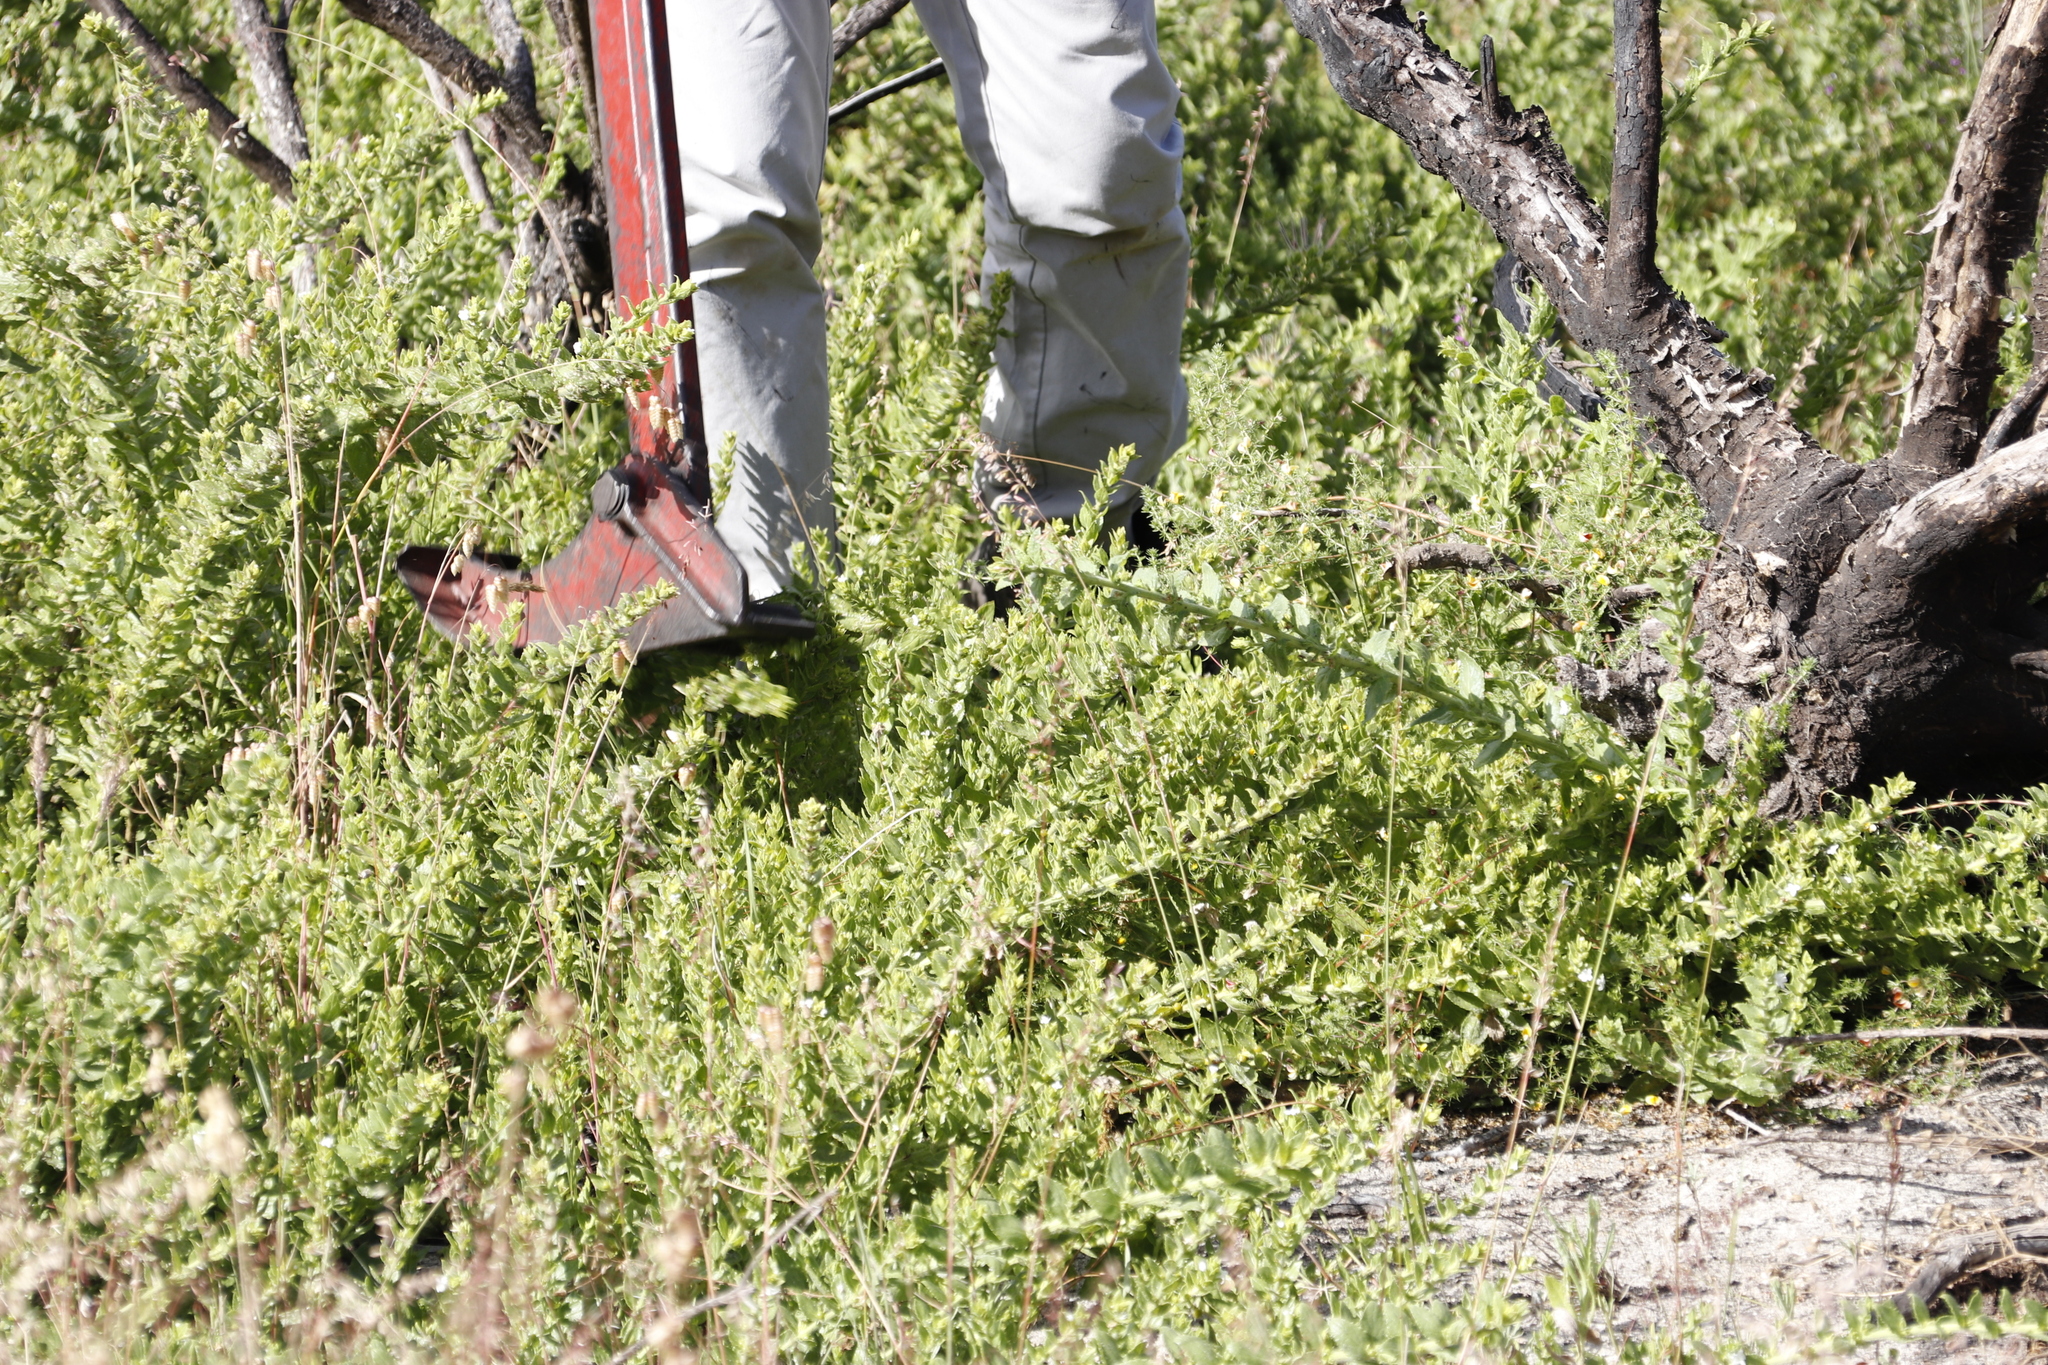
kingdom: Plantae
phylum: Tracheophyta
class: Magnoliopsida
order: Lamiales
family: Scrophulariaceae
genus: Oftia
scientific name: Oftia africana
